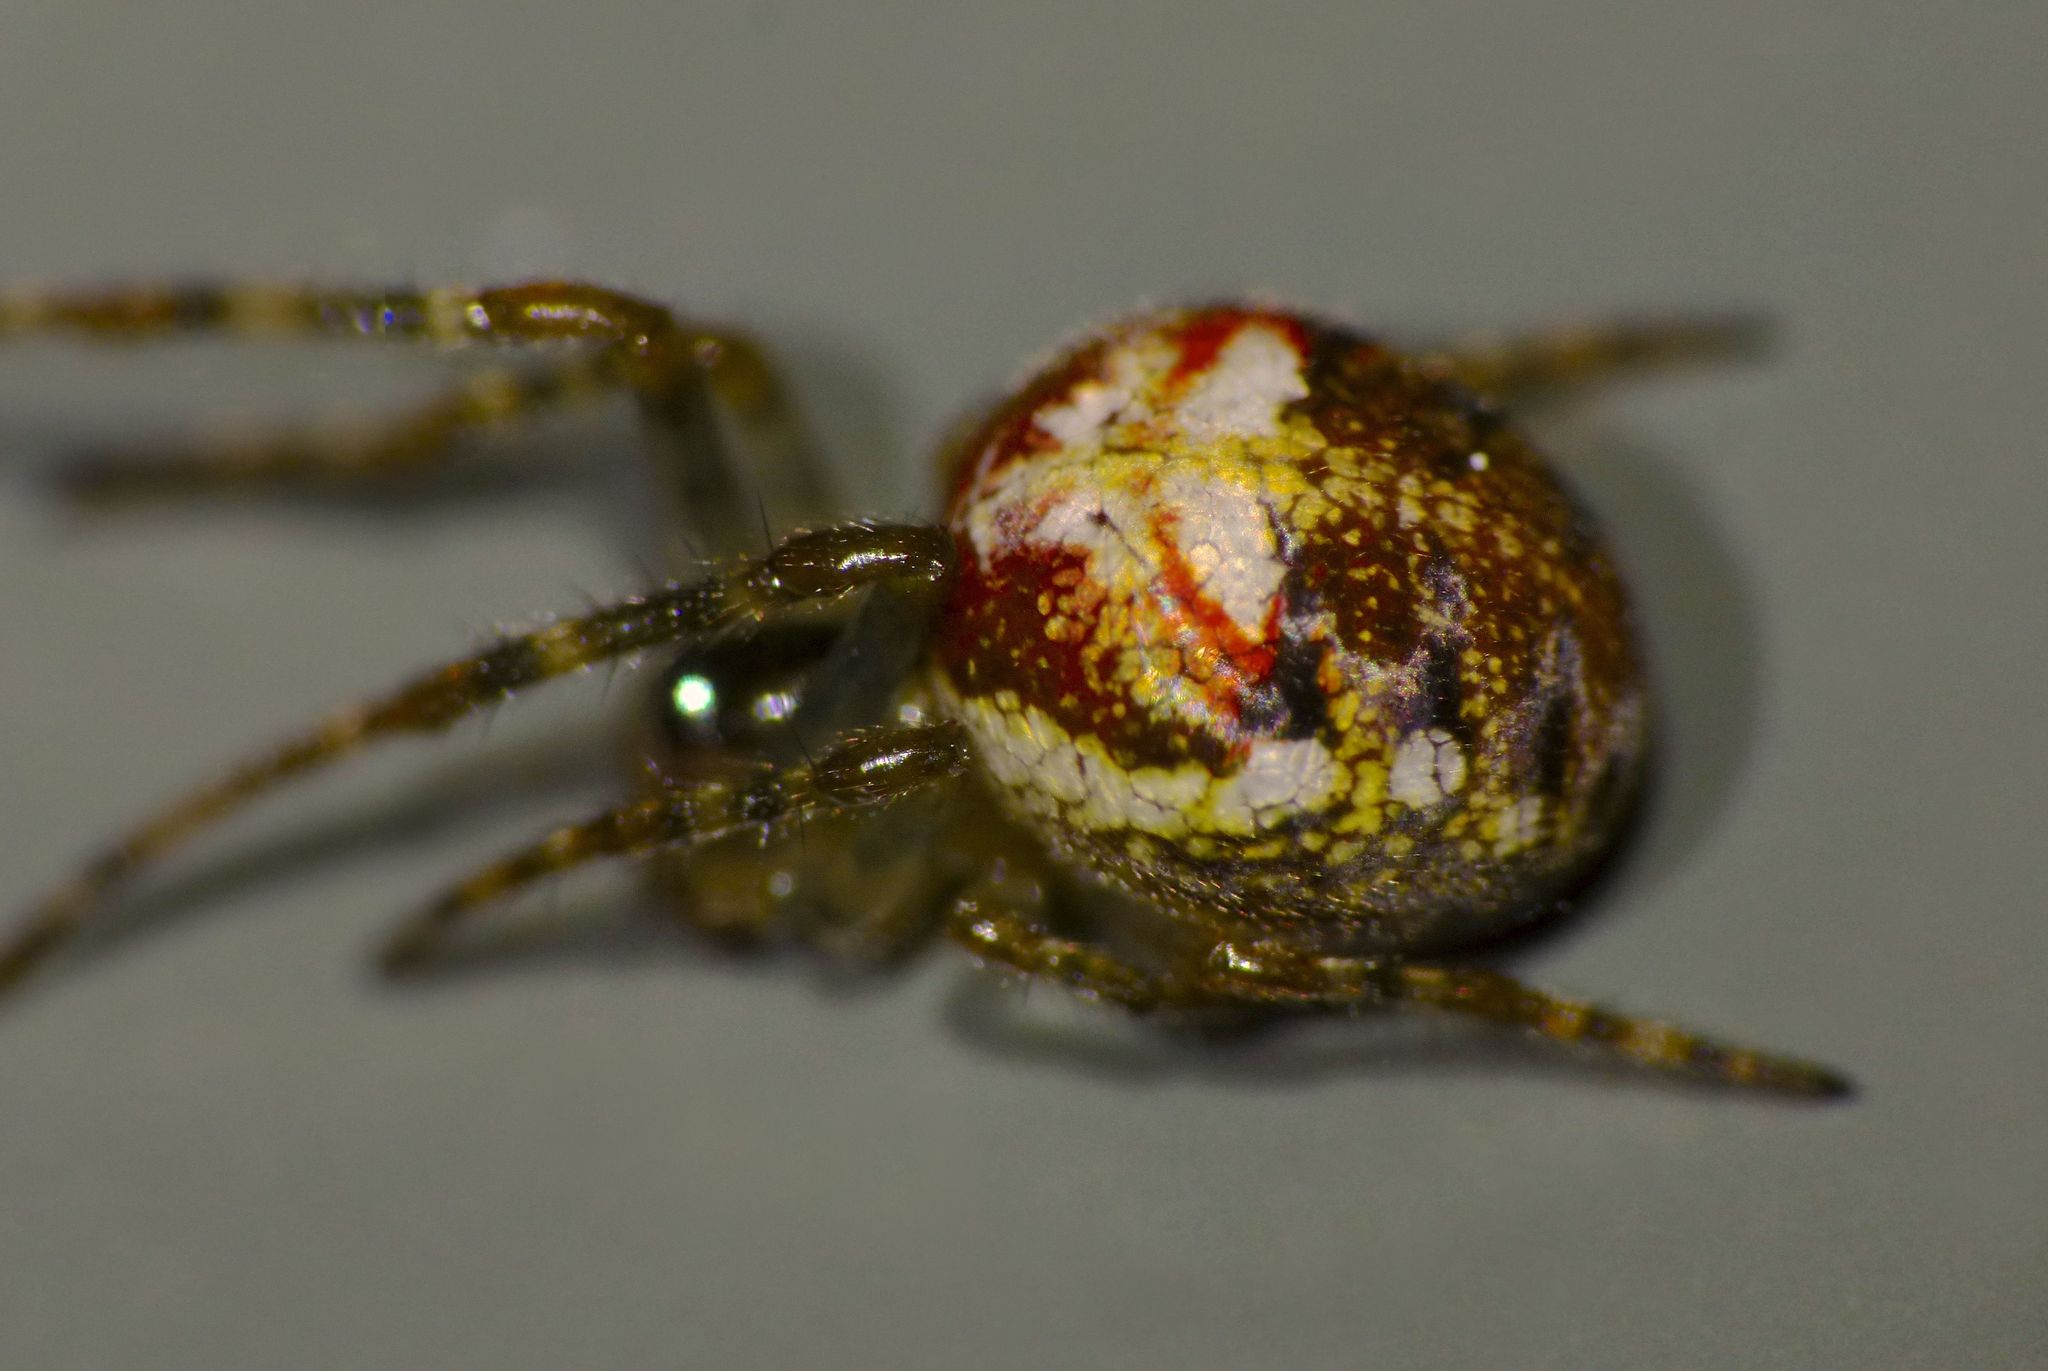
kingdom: Animalia
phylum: Arthropoda
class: Arachnida
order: Araneae
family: Tetragnathidae
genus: Taraire
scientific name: Taraire rufolineata
